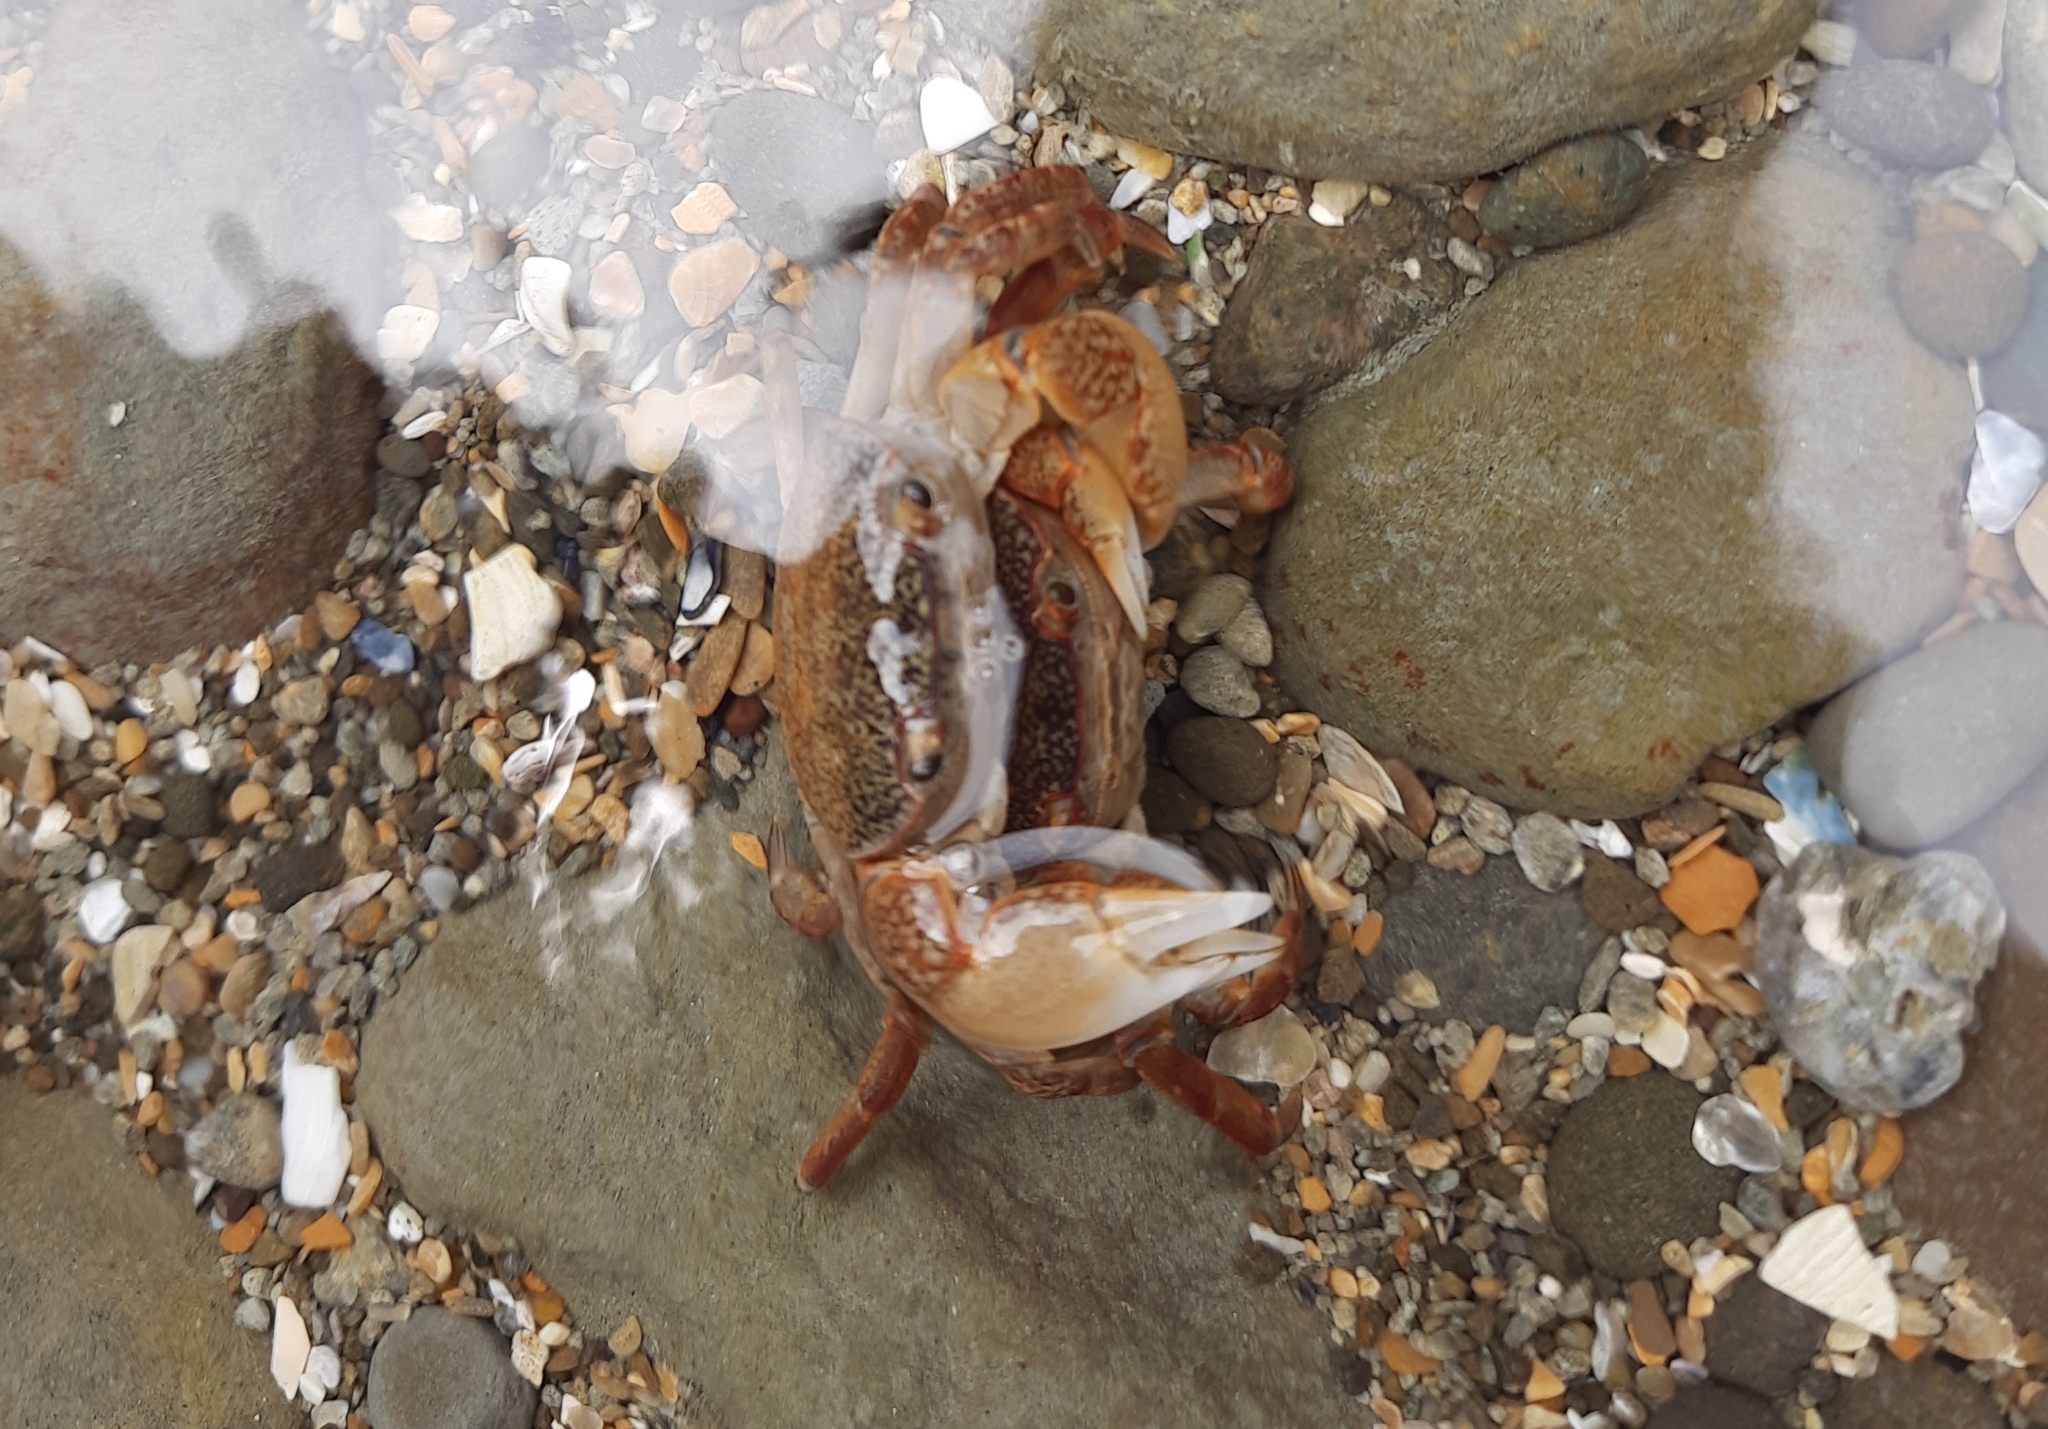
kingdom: Animalia
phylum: Arthropoda
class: Malacostraca
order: Decapoda
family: Varunidae
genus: Cyclograpsus
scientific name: Cyclograpsus lavauxi
